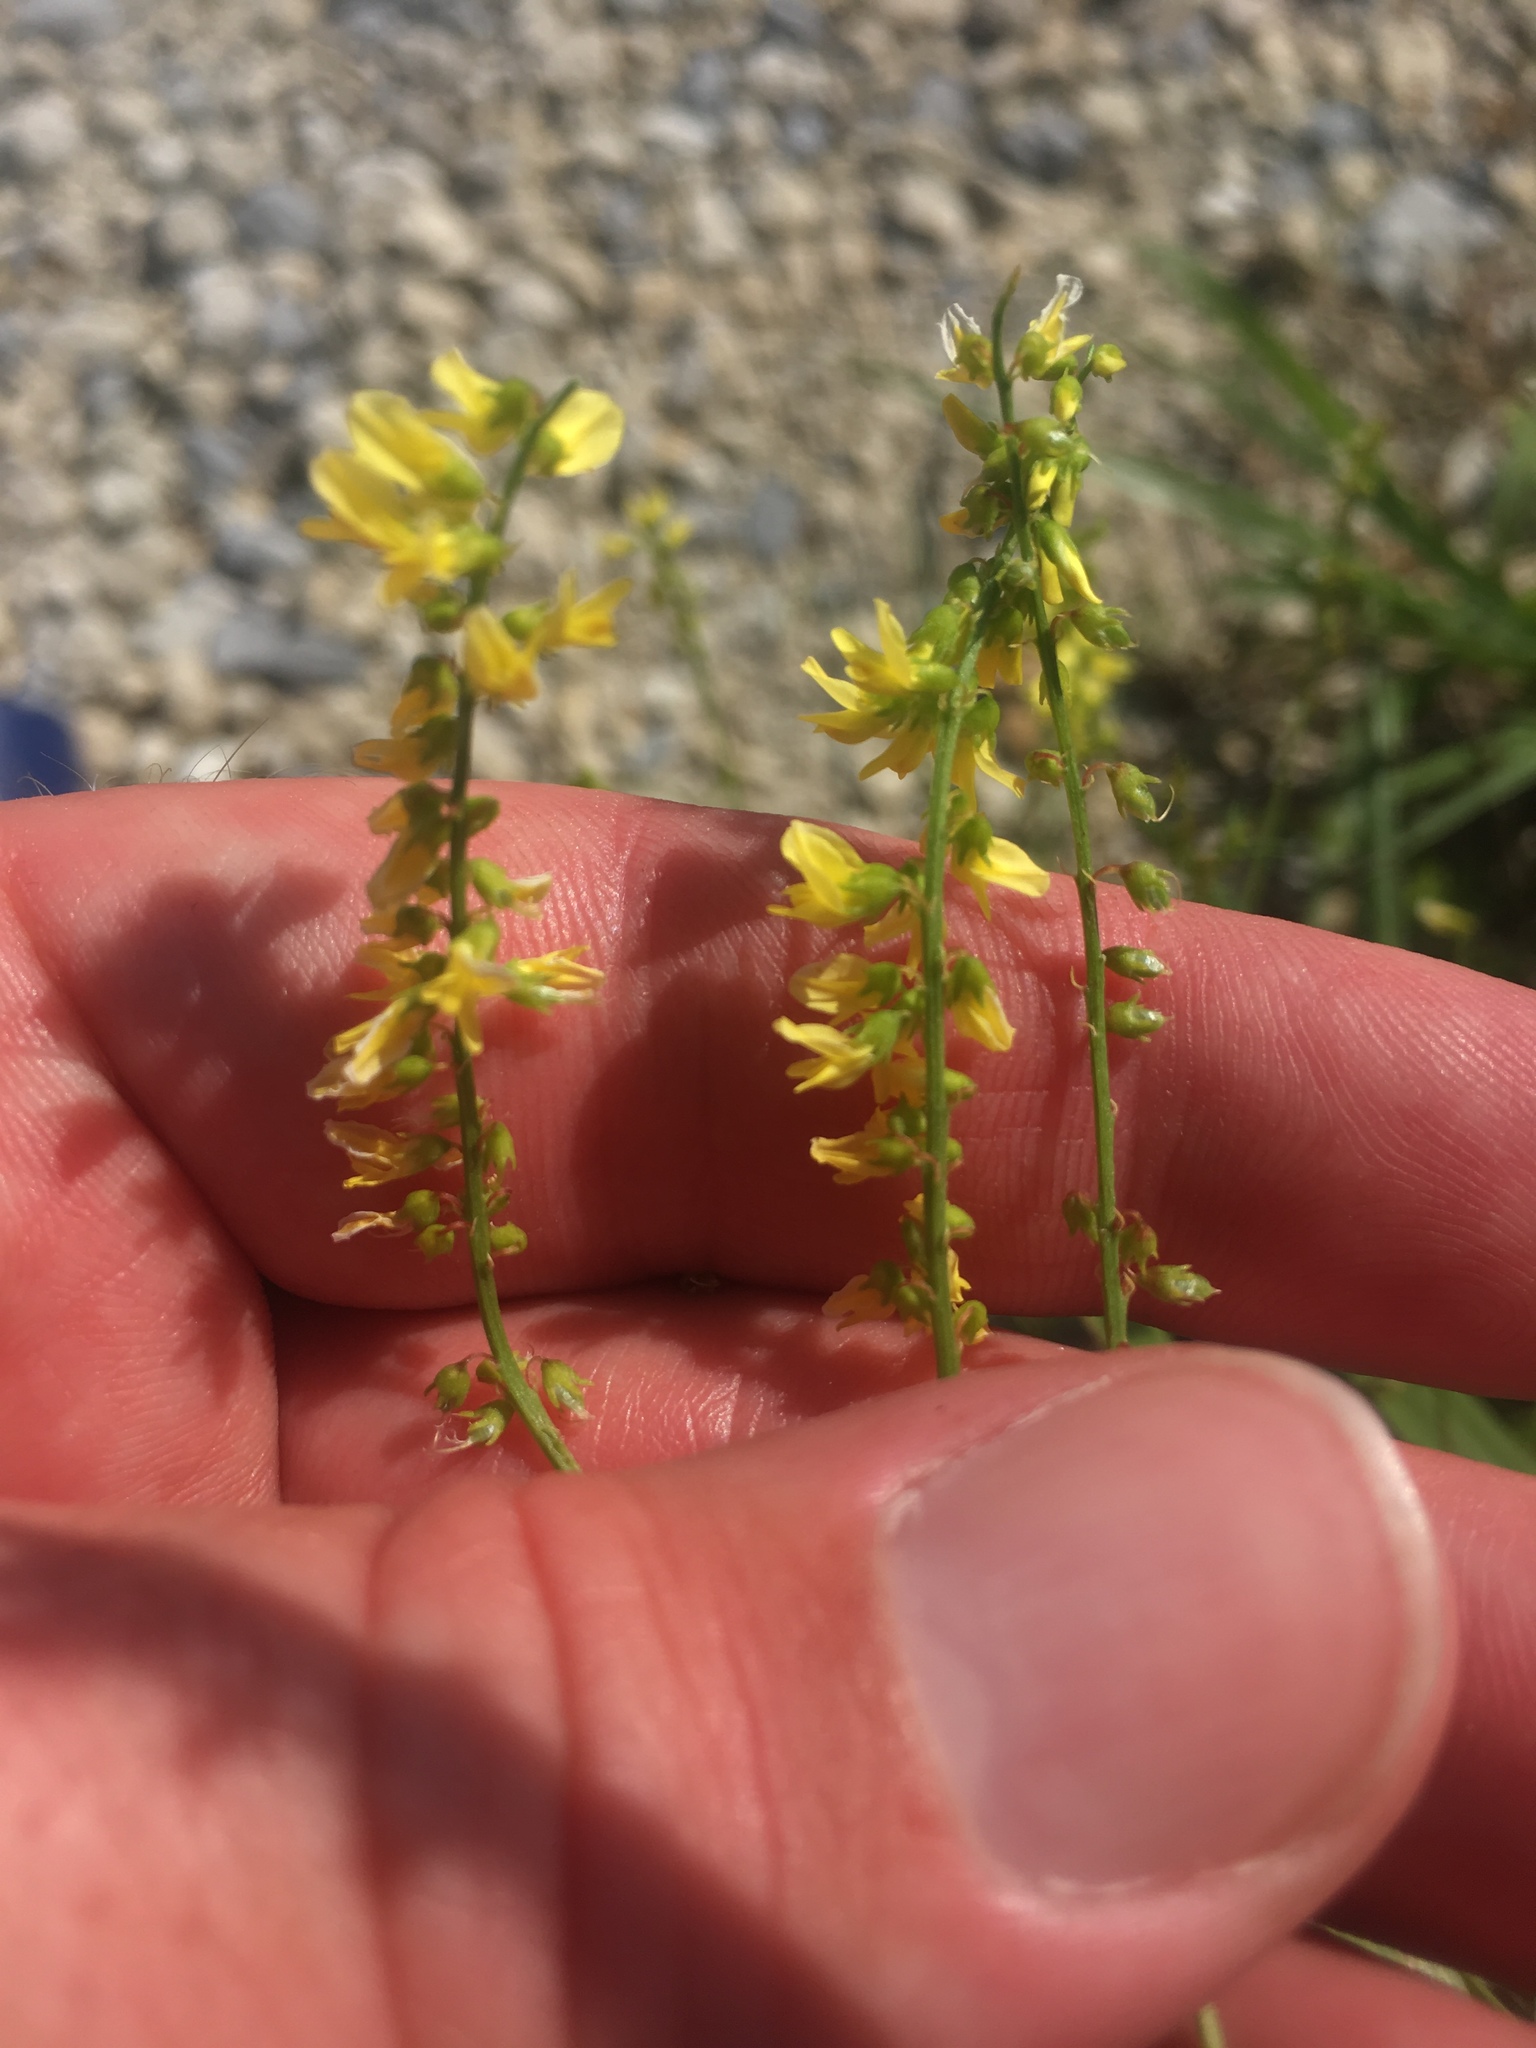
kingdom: Plantae
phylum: Tracheophyta
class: Magnoliopsida
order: Fabales
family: Fabaceae
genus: Melilotus
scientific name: Melilotus officinalis
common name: Sweetclover
